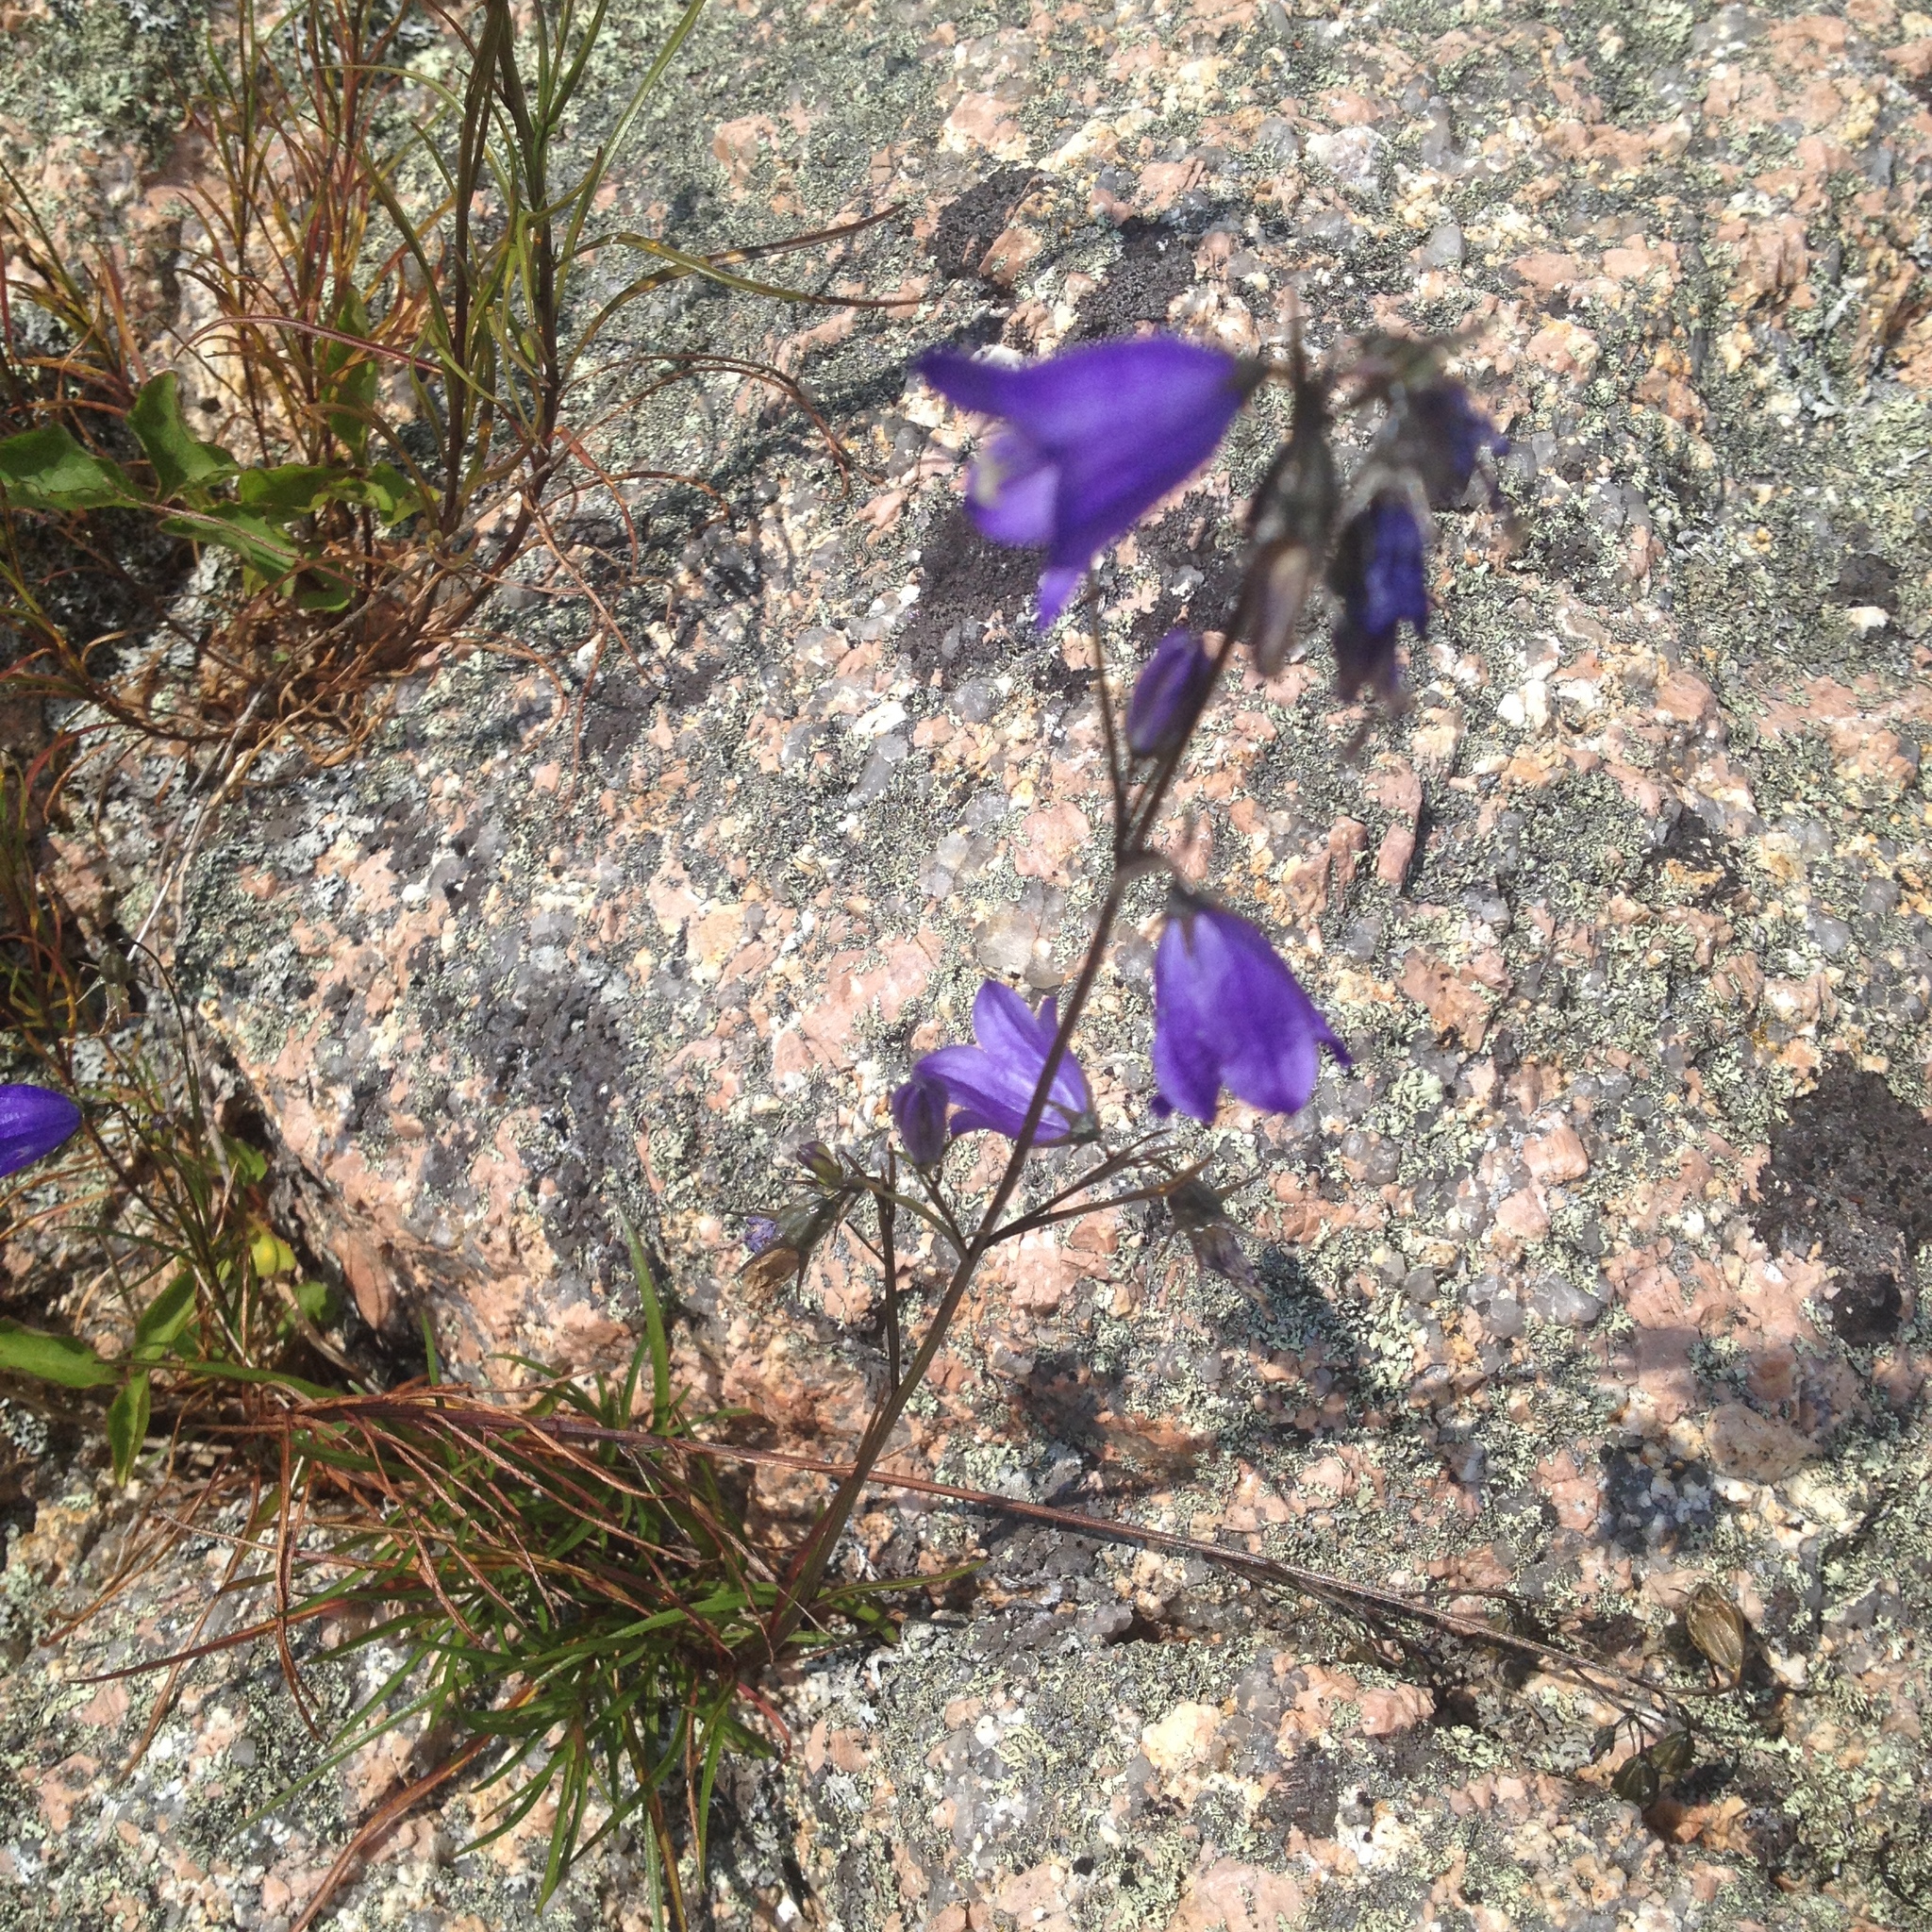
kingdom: Plantae
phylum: Tracheophyta
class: Magnoliopsida
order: Asterales
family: Campanulaceae
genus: Campanula
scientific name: Campanula intercedens
